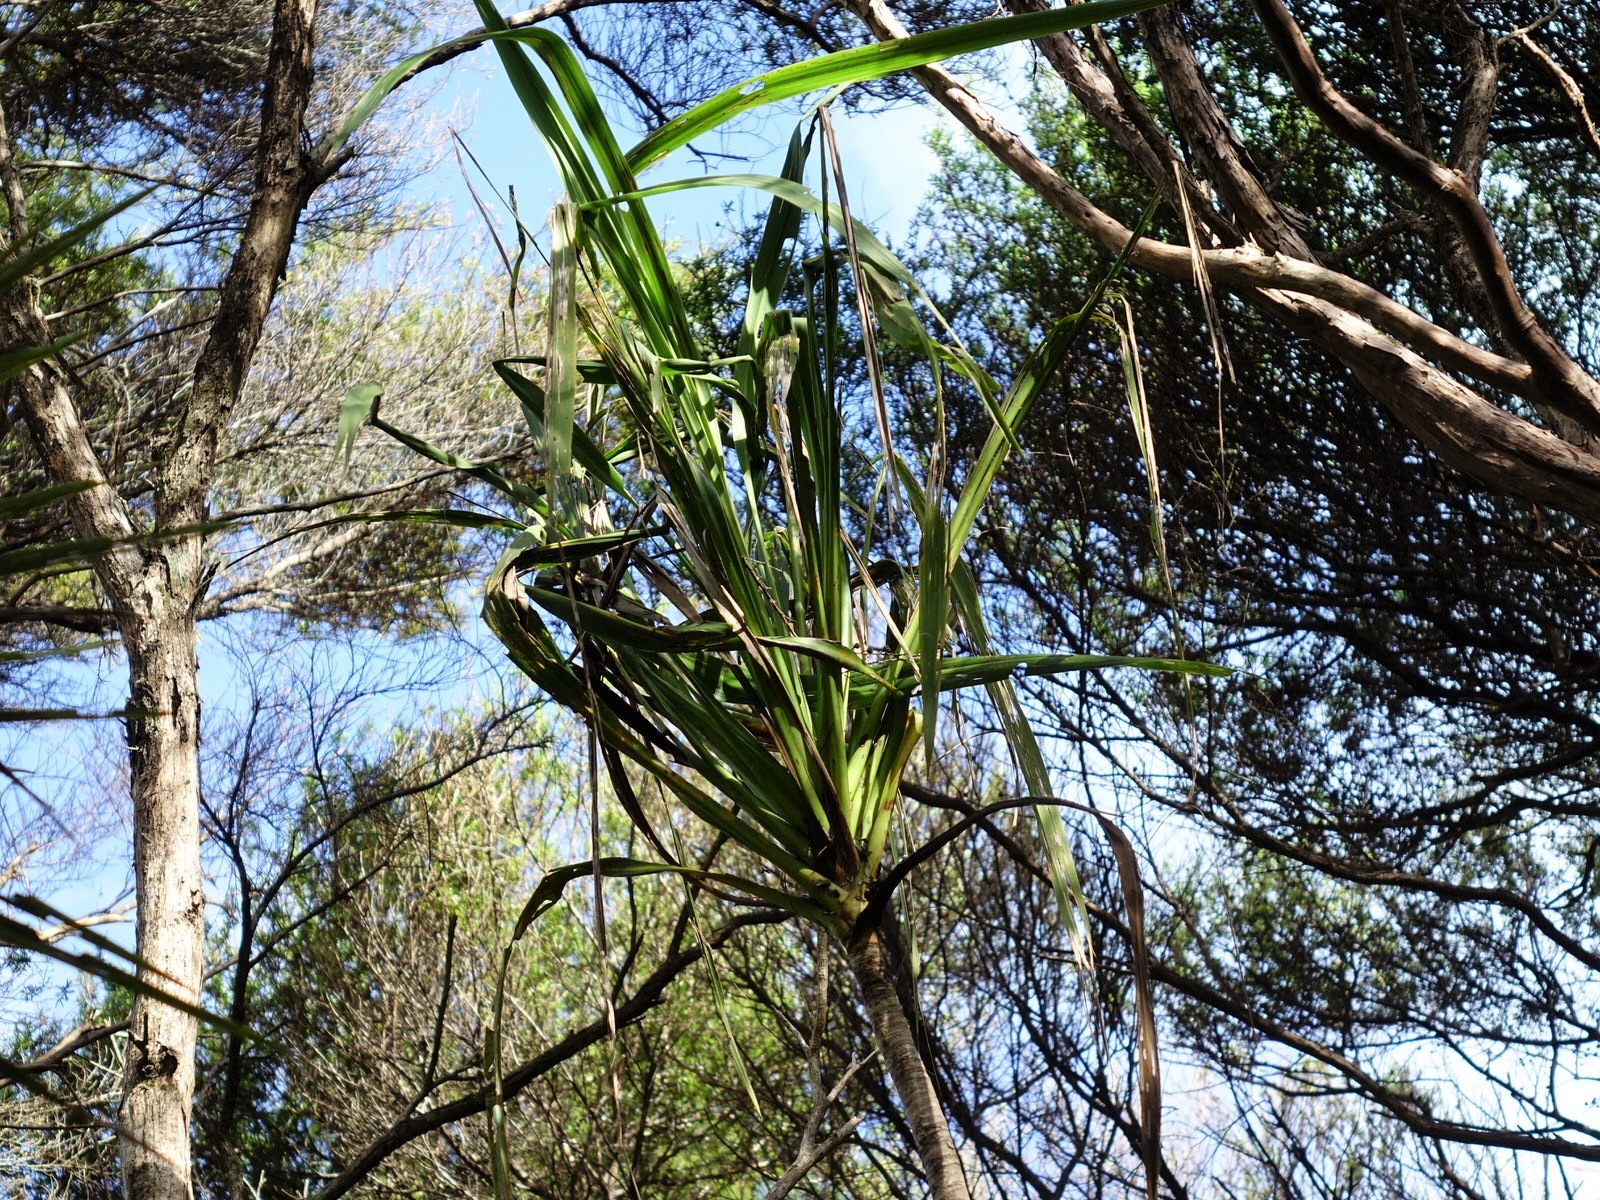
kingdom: Plantae
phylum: Tracheophyta
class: Liliopsida
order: Asparagales
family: Asparagaceae
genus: Cordyline
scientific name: Cordyline banksii
